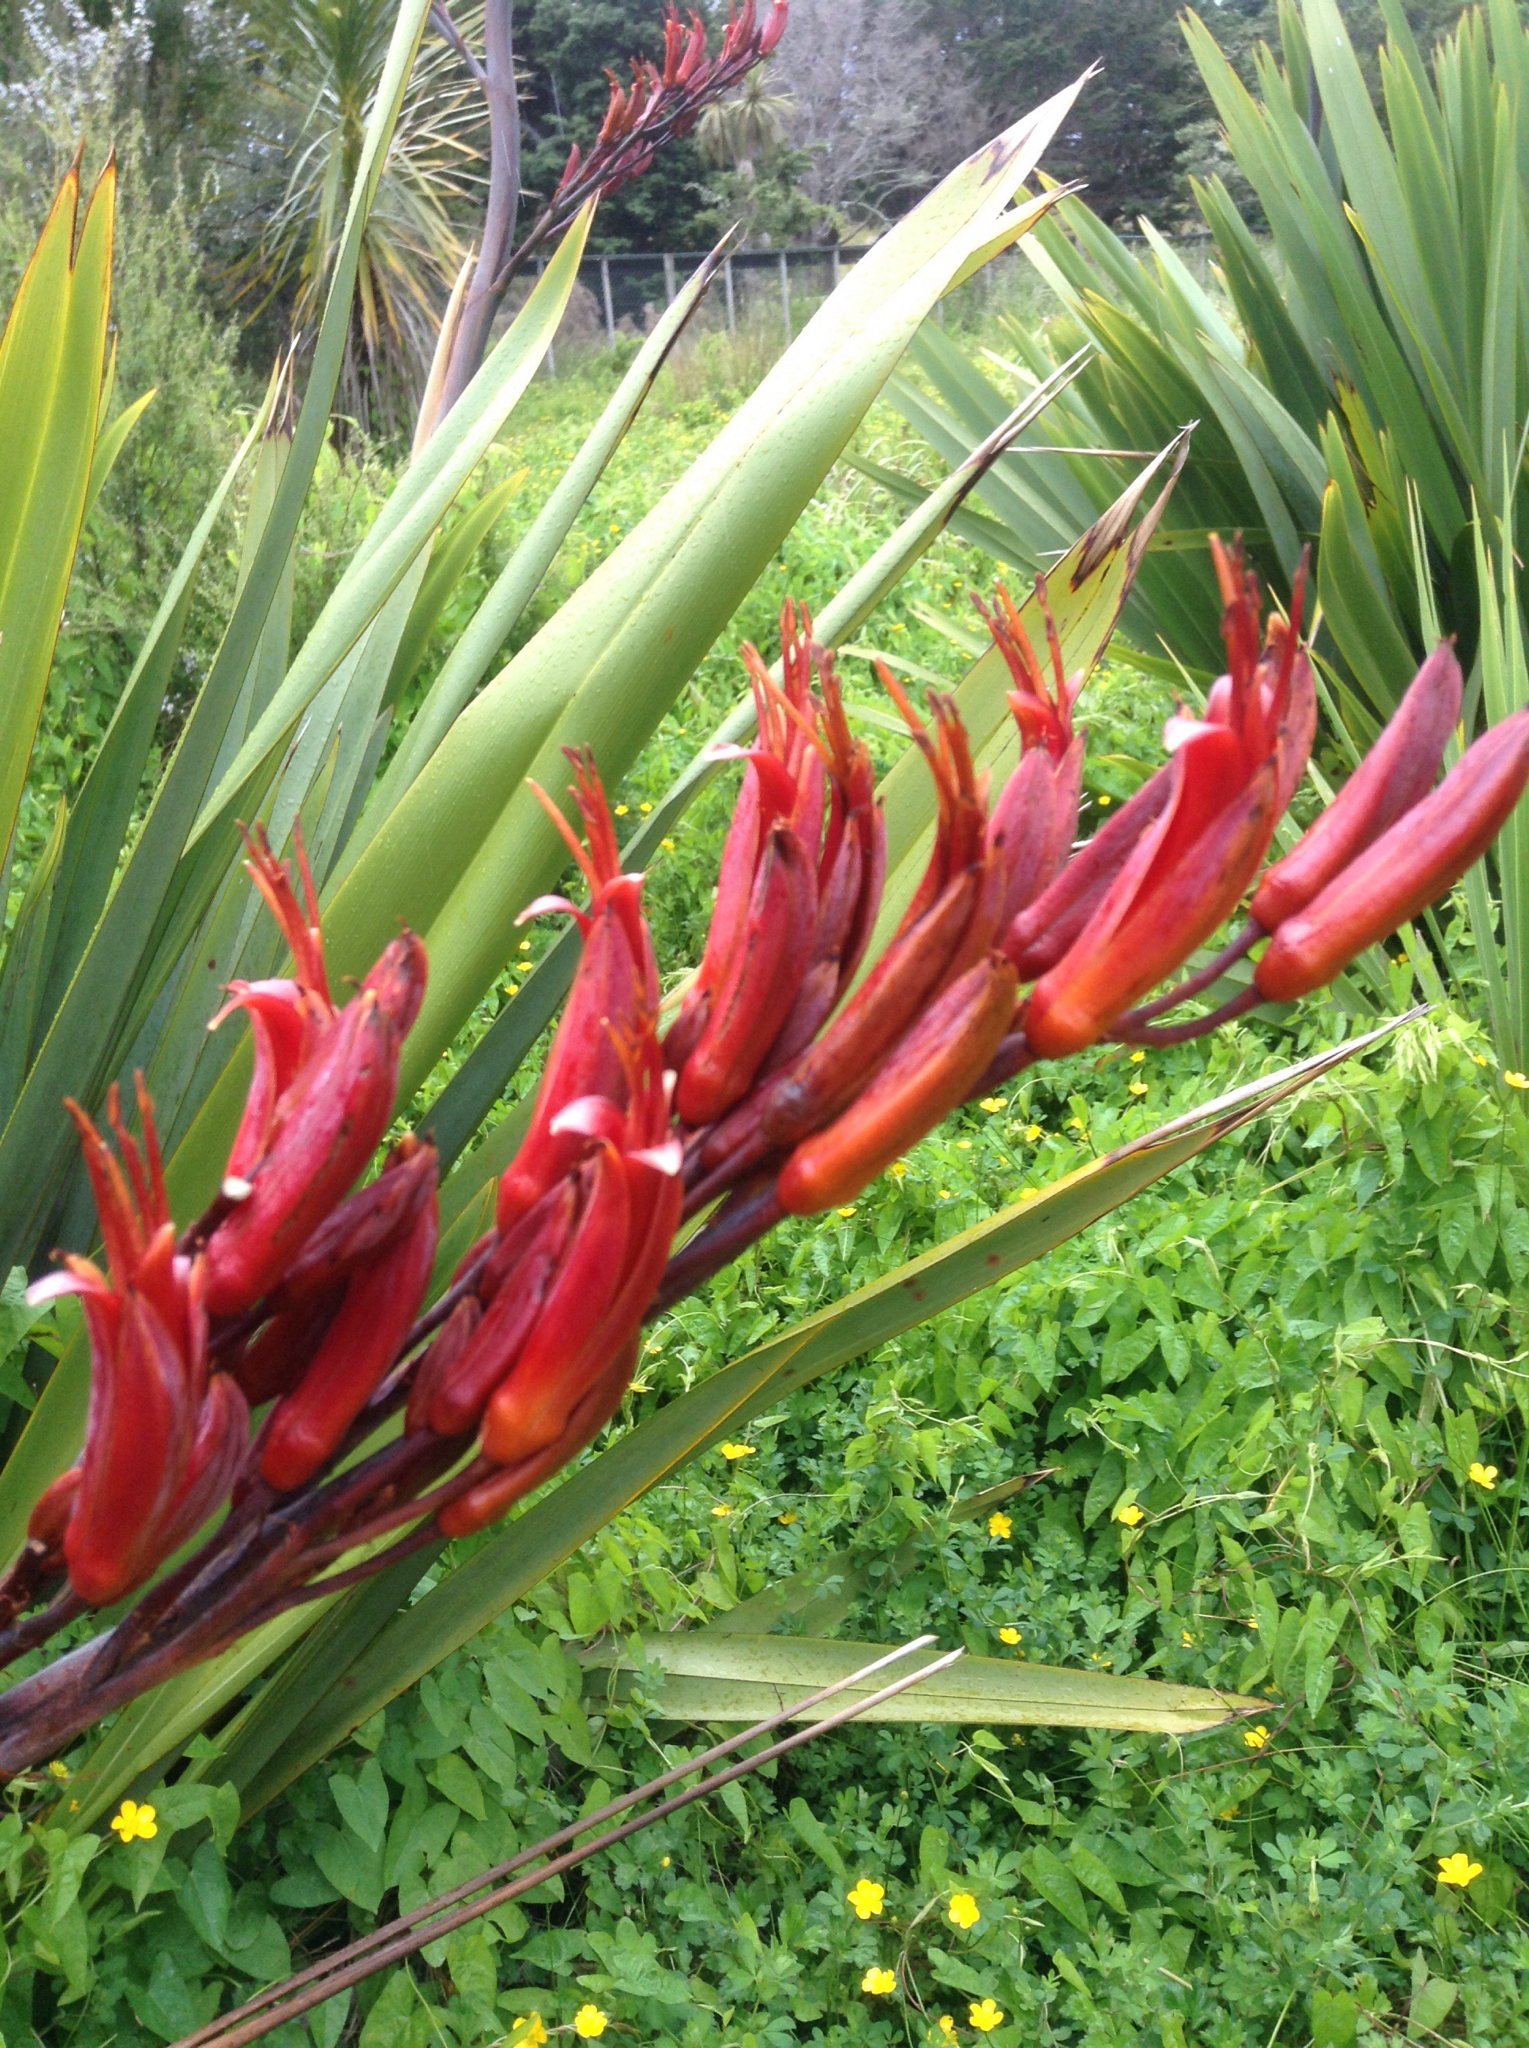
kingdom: Plantae
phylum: Tracheophyta
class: Liliopsida
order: Asparagales
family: Asphodelaceae
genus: Phormium
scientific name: Phormium tenax
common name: New zealand flax
